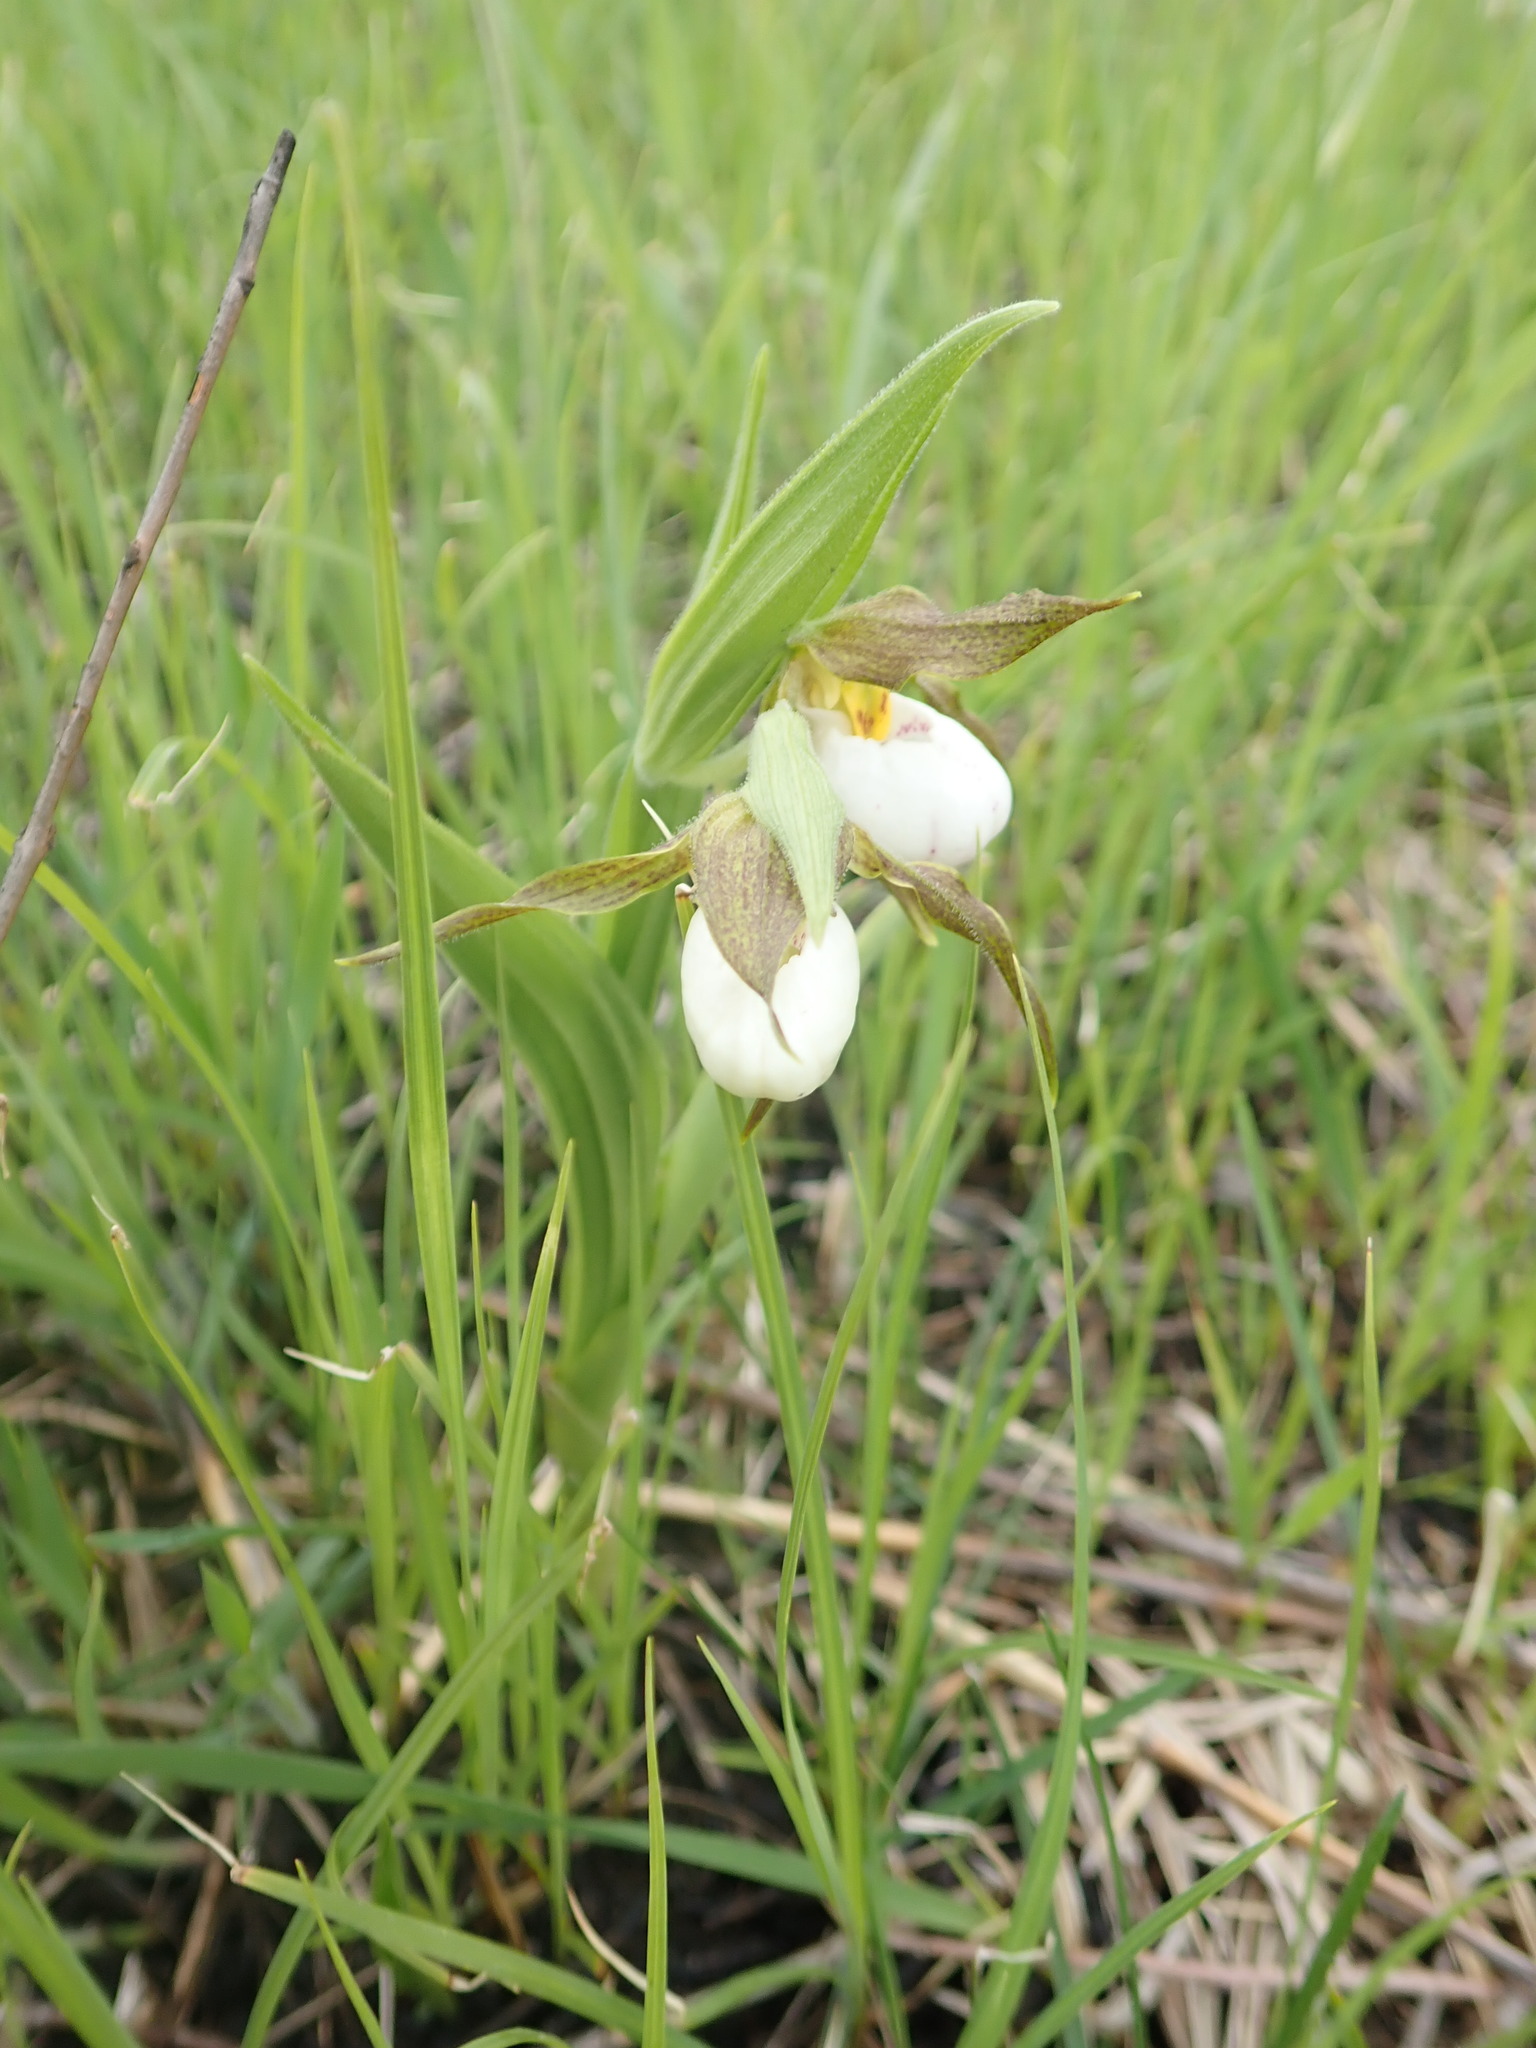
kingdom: Plantae
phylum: Tracheophyta
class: Liliopsida
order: Asparagales
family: Orchidaceae
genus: Cypripedium
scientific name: Cypripedium candidum
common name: White lady's-slipper
